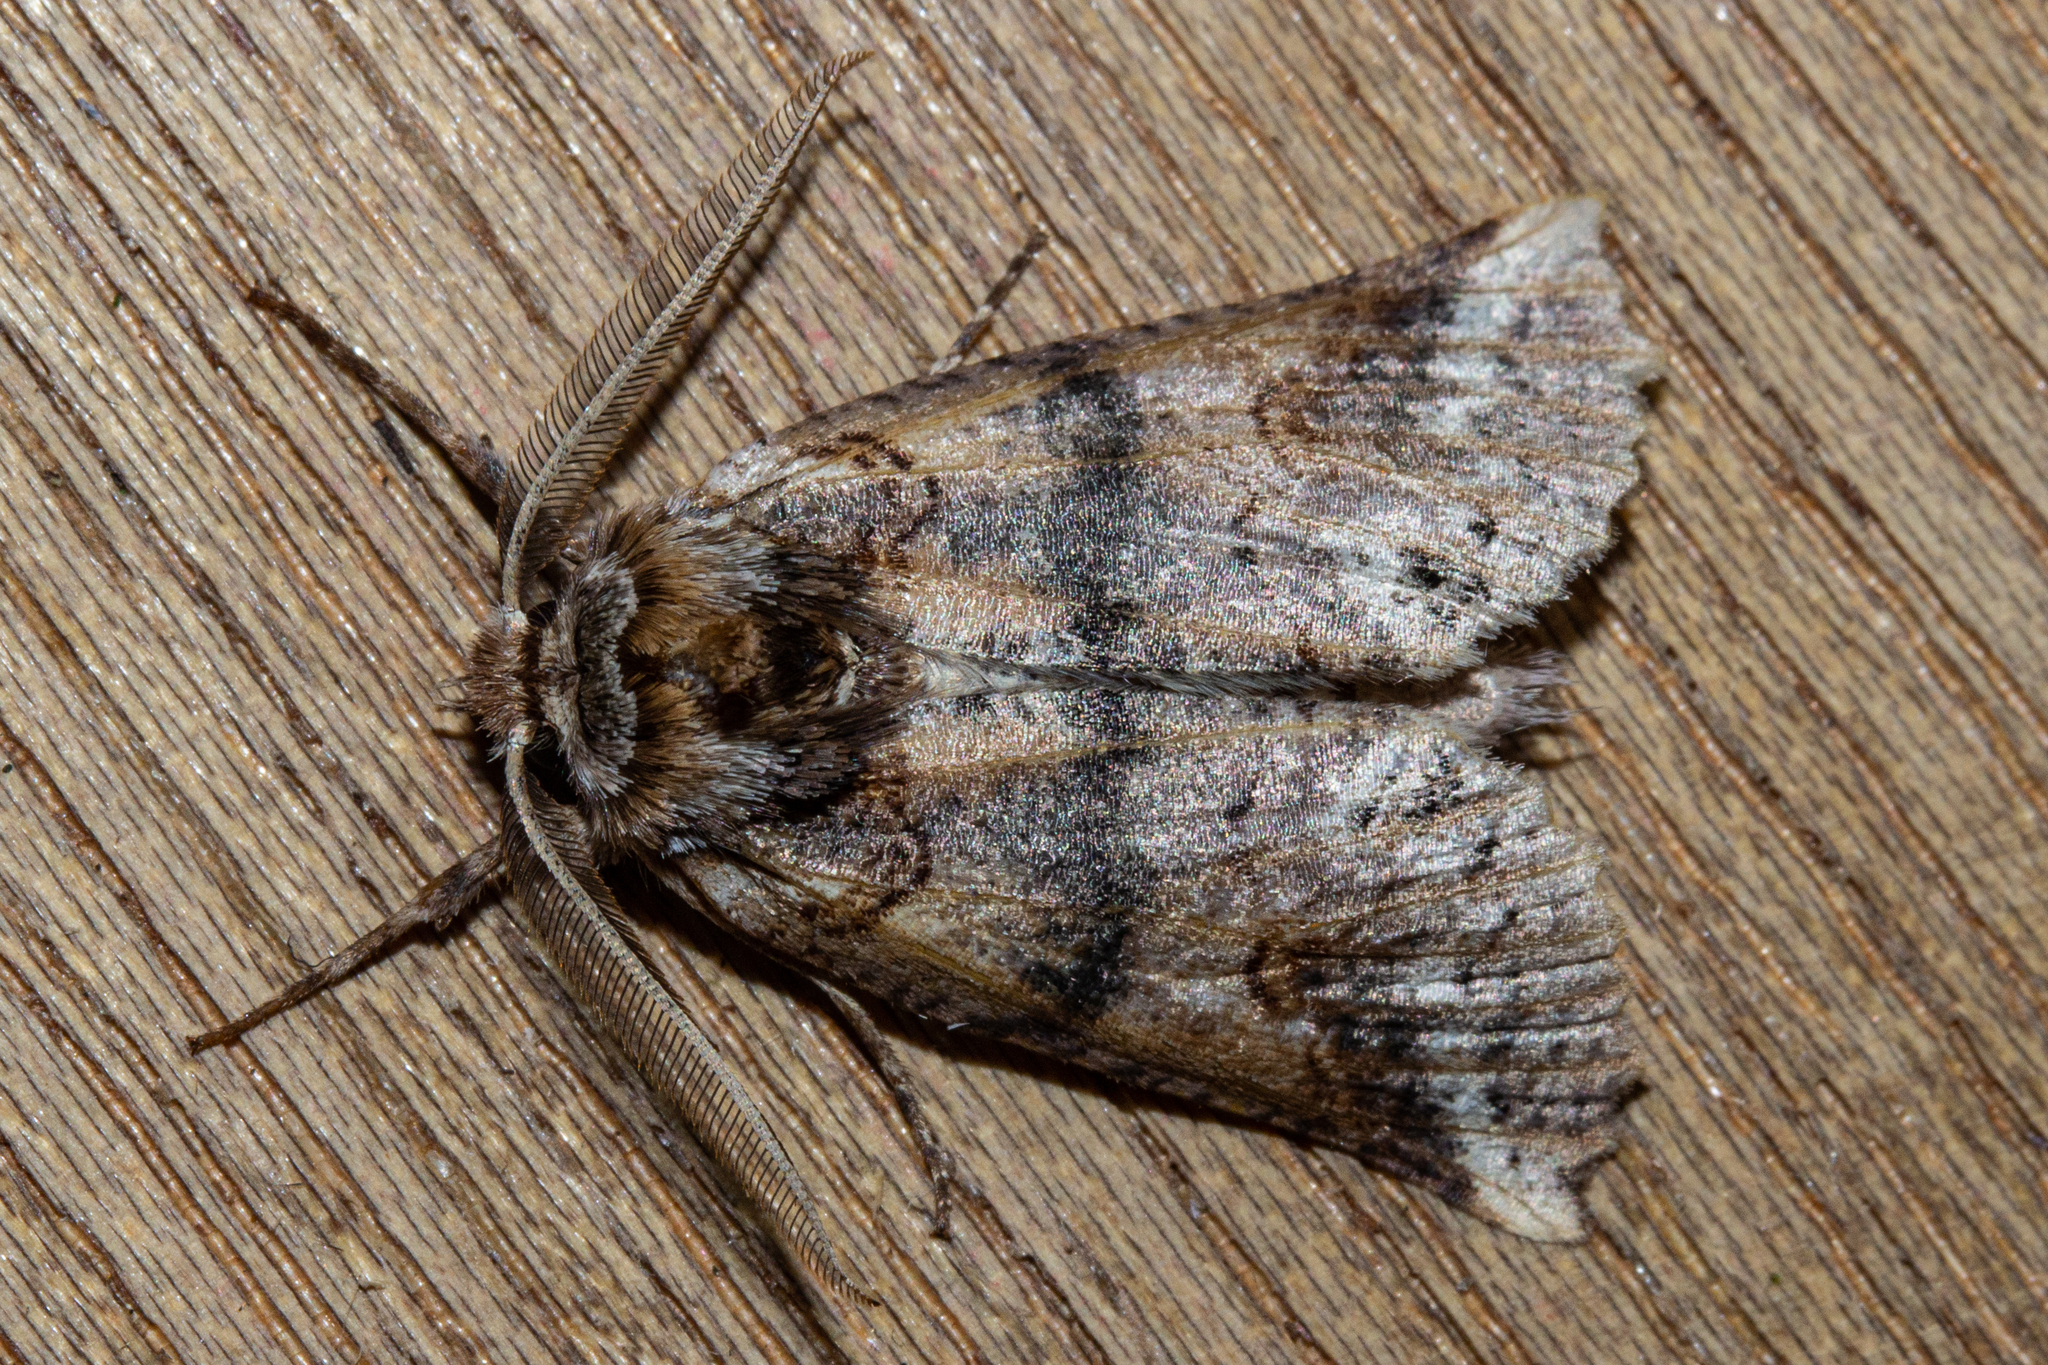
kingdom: Animalia
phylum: Arthropoda
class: Insecta
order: Lepidoptera
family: Geometridae
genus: Declana
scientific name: Declana
